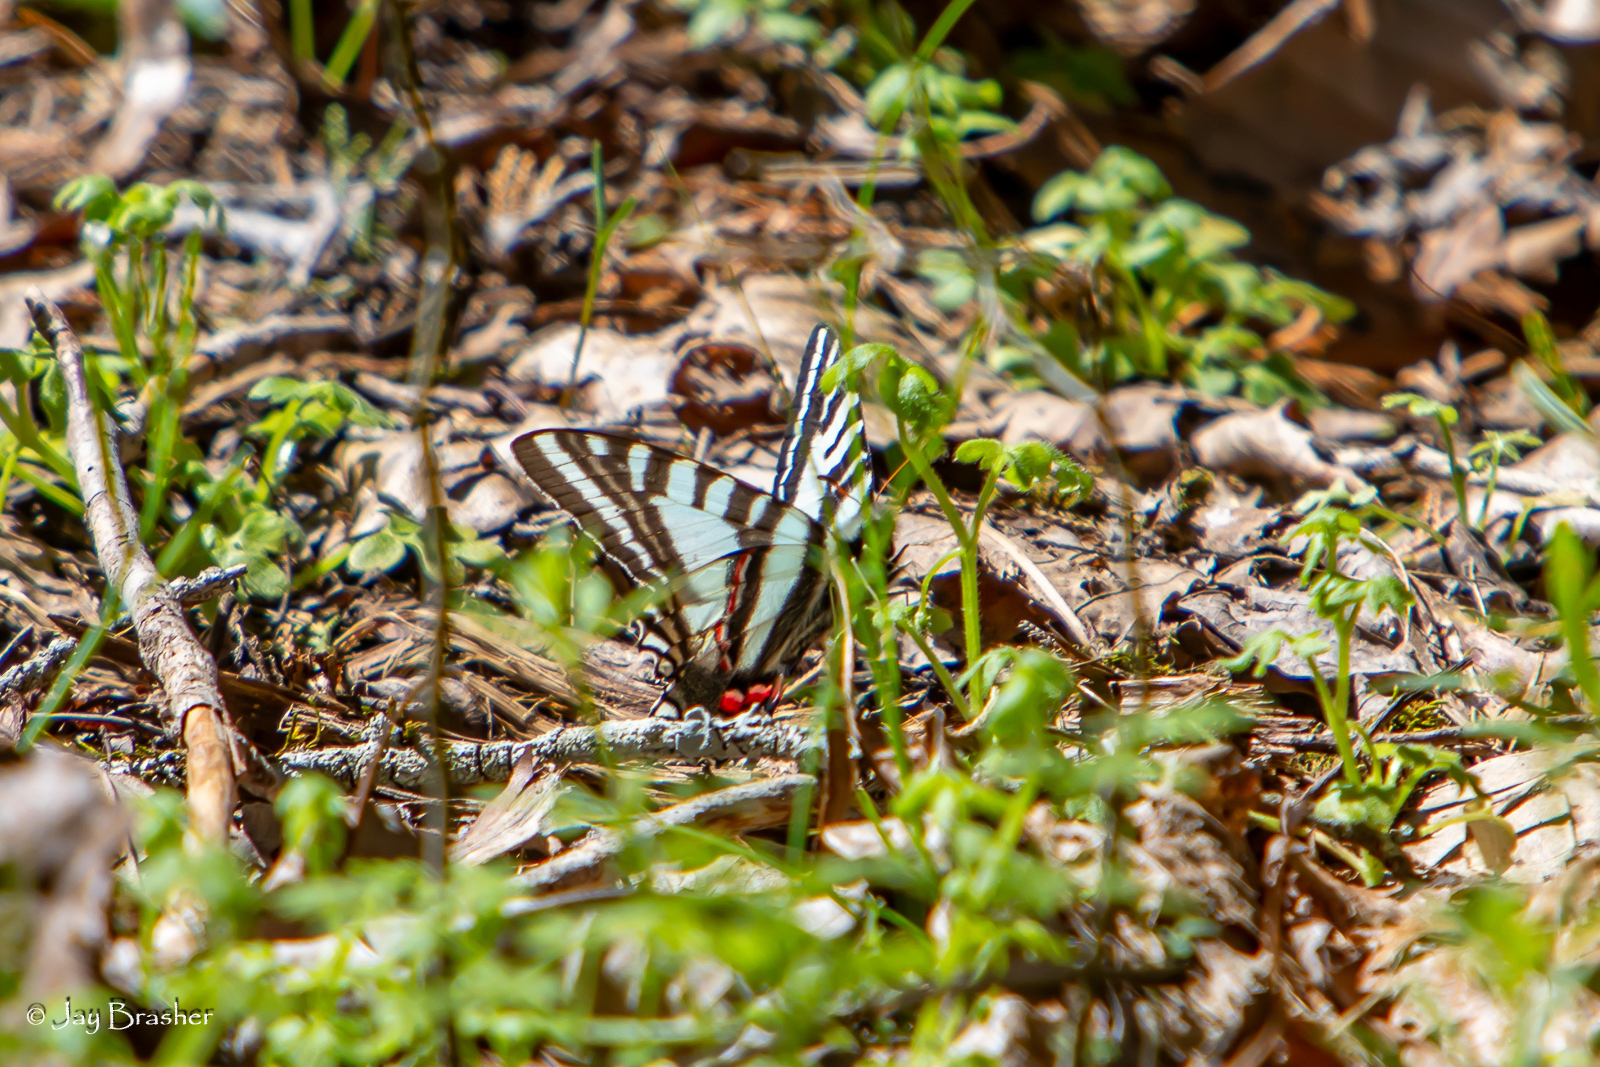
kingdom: Animalia
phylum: Arthropoda
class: Insecta
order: Lepidoptera
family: Papilionidae
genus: Protographium
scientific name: Protographium marcellus
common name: Zebra swallowtail
